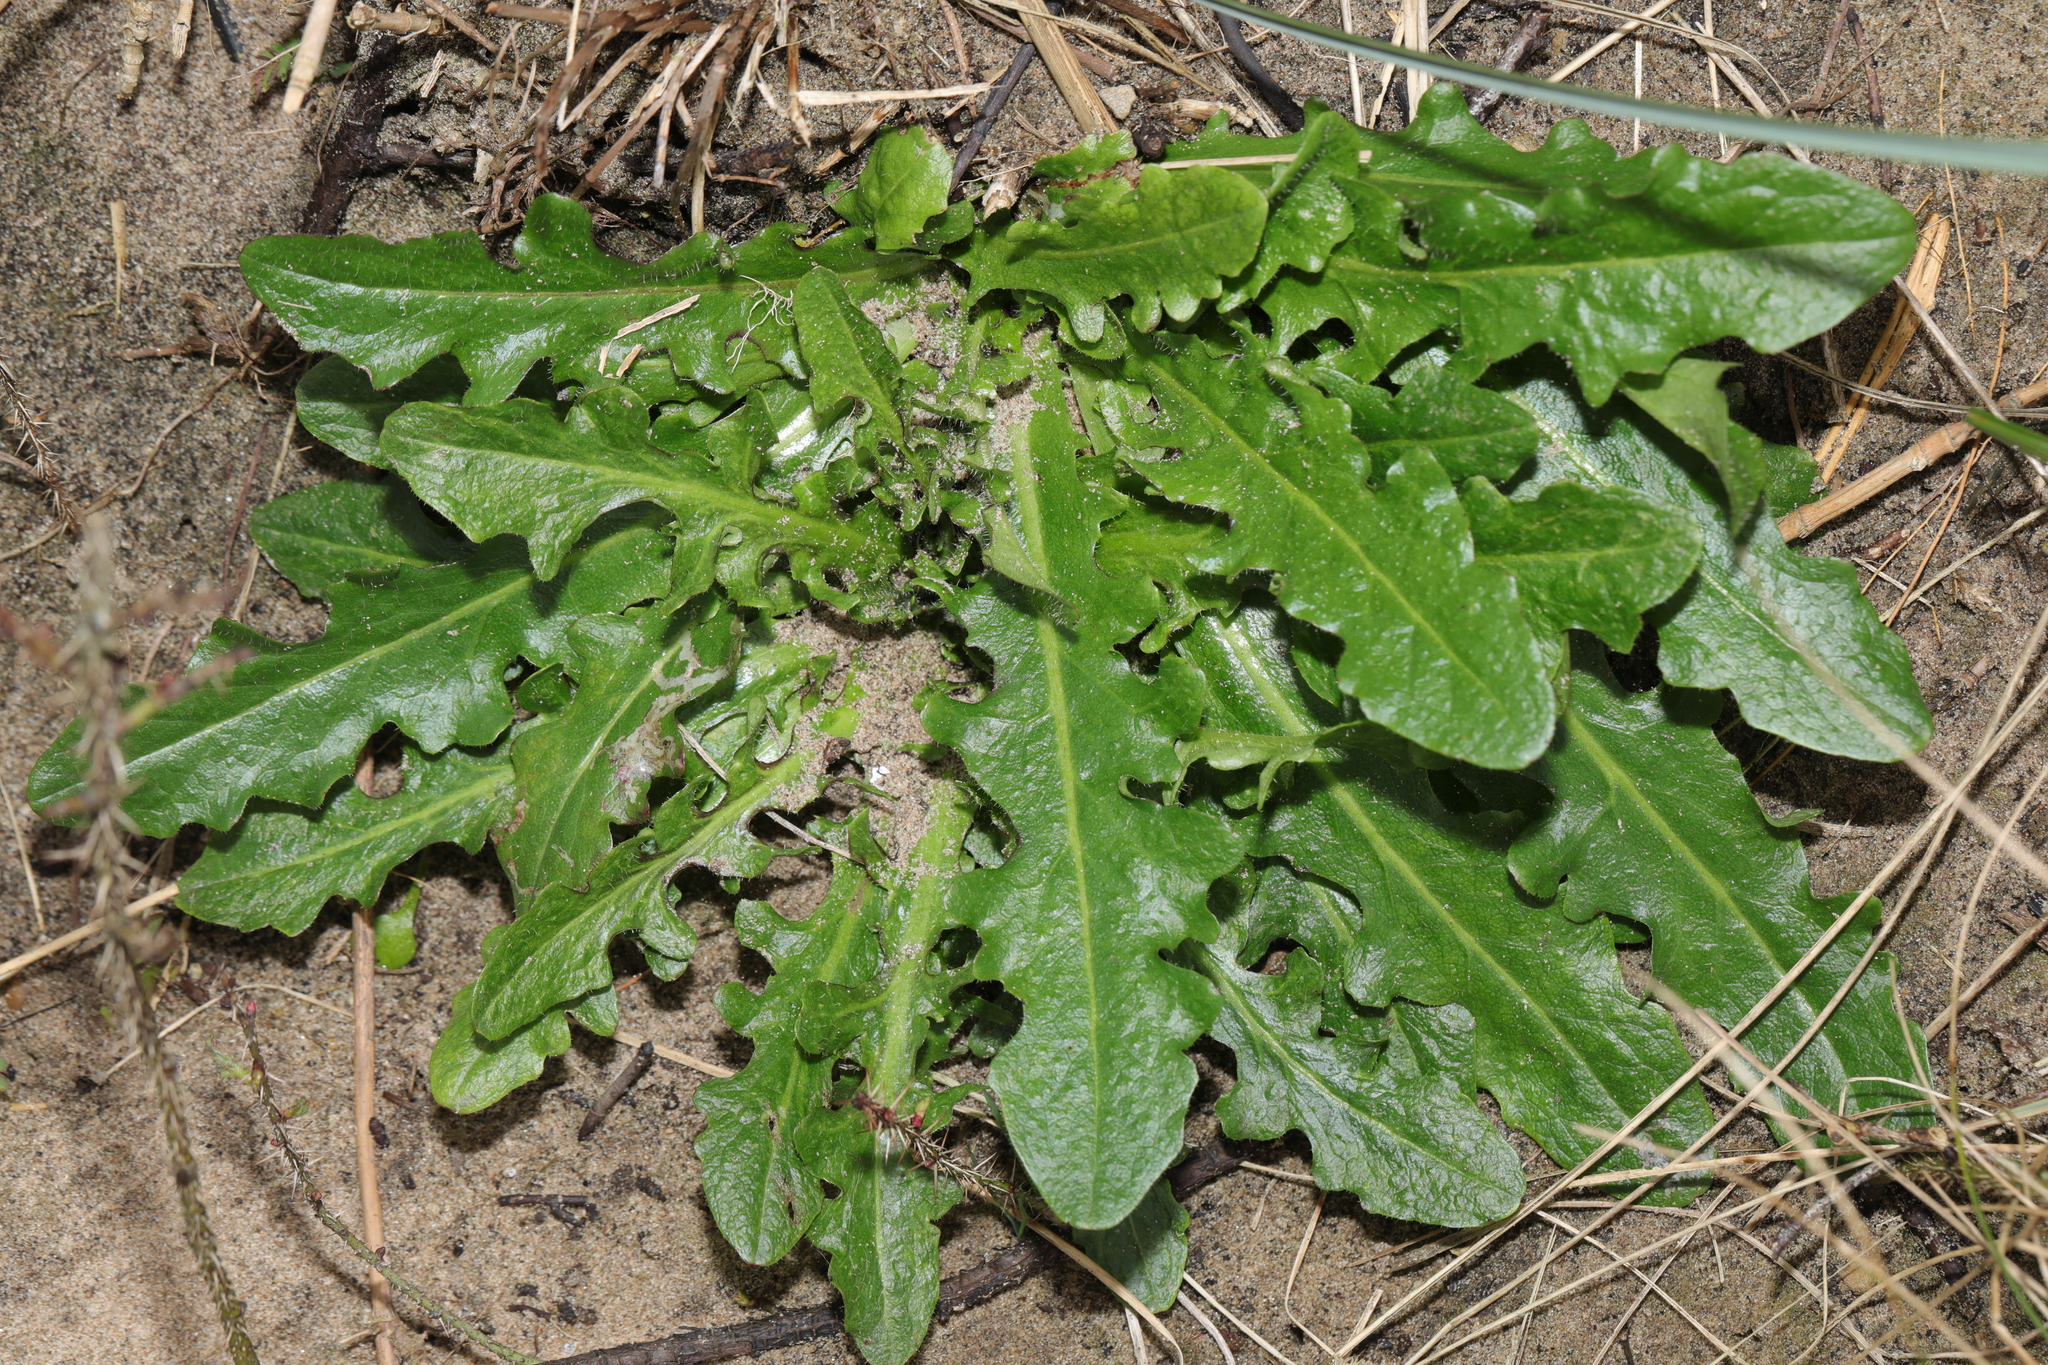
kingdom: Plantae
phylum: Tracheophyta
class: Magnoliopsida
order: Asterales
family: Asteraceae
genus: Hypochaeris
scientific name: Hypochaeris radicata
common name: Flatweed
